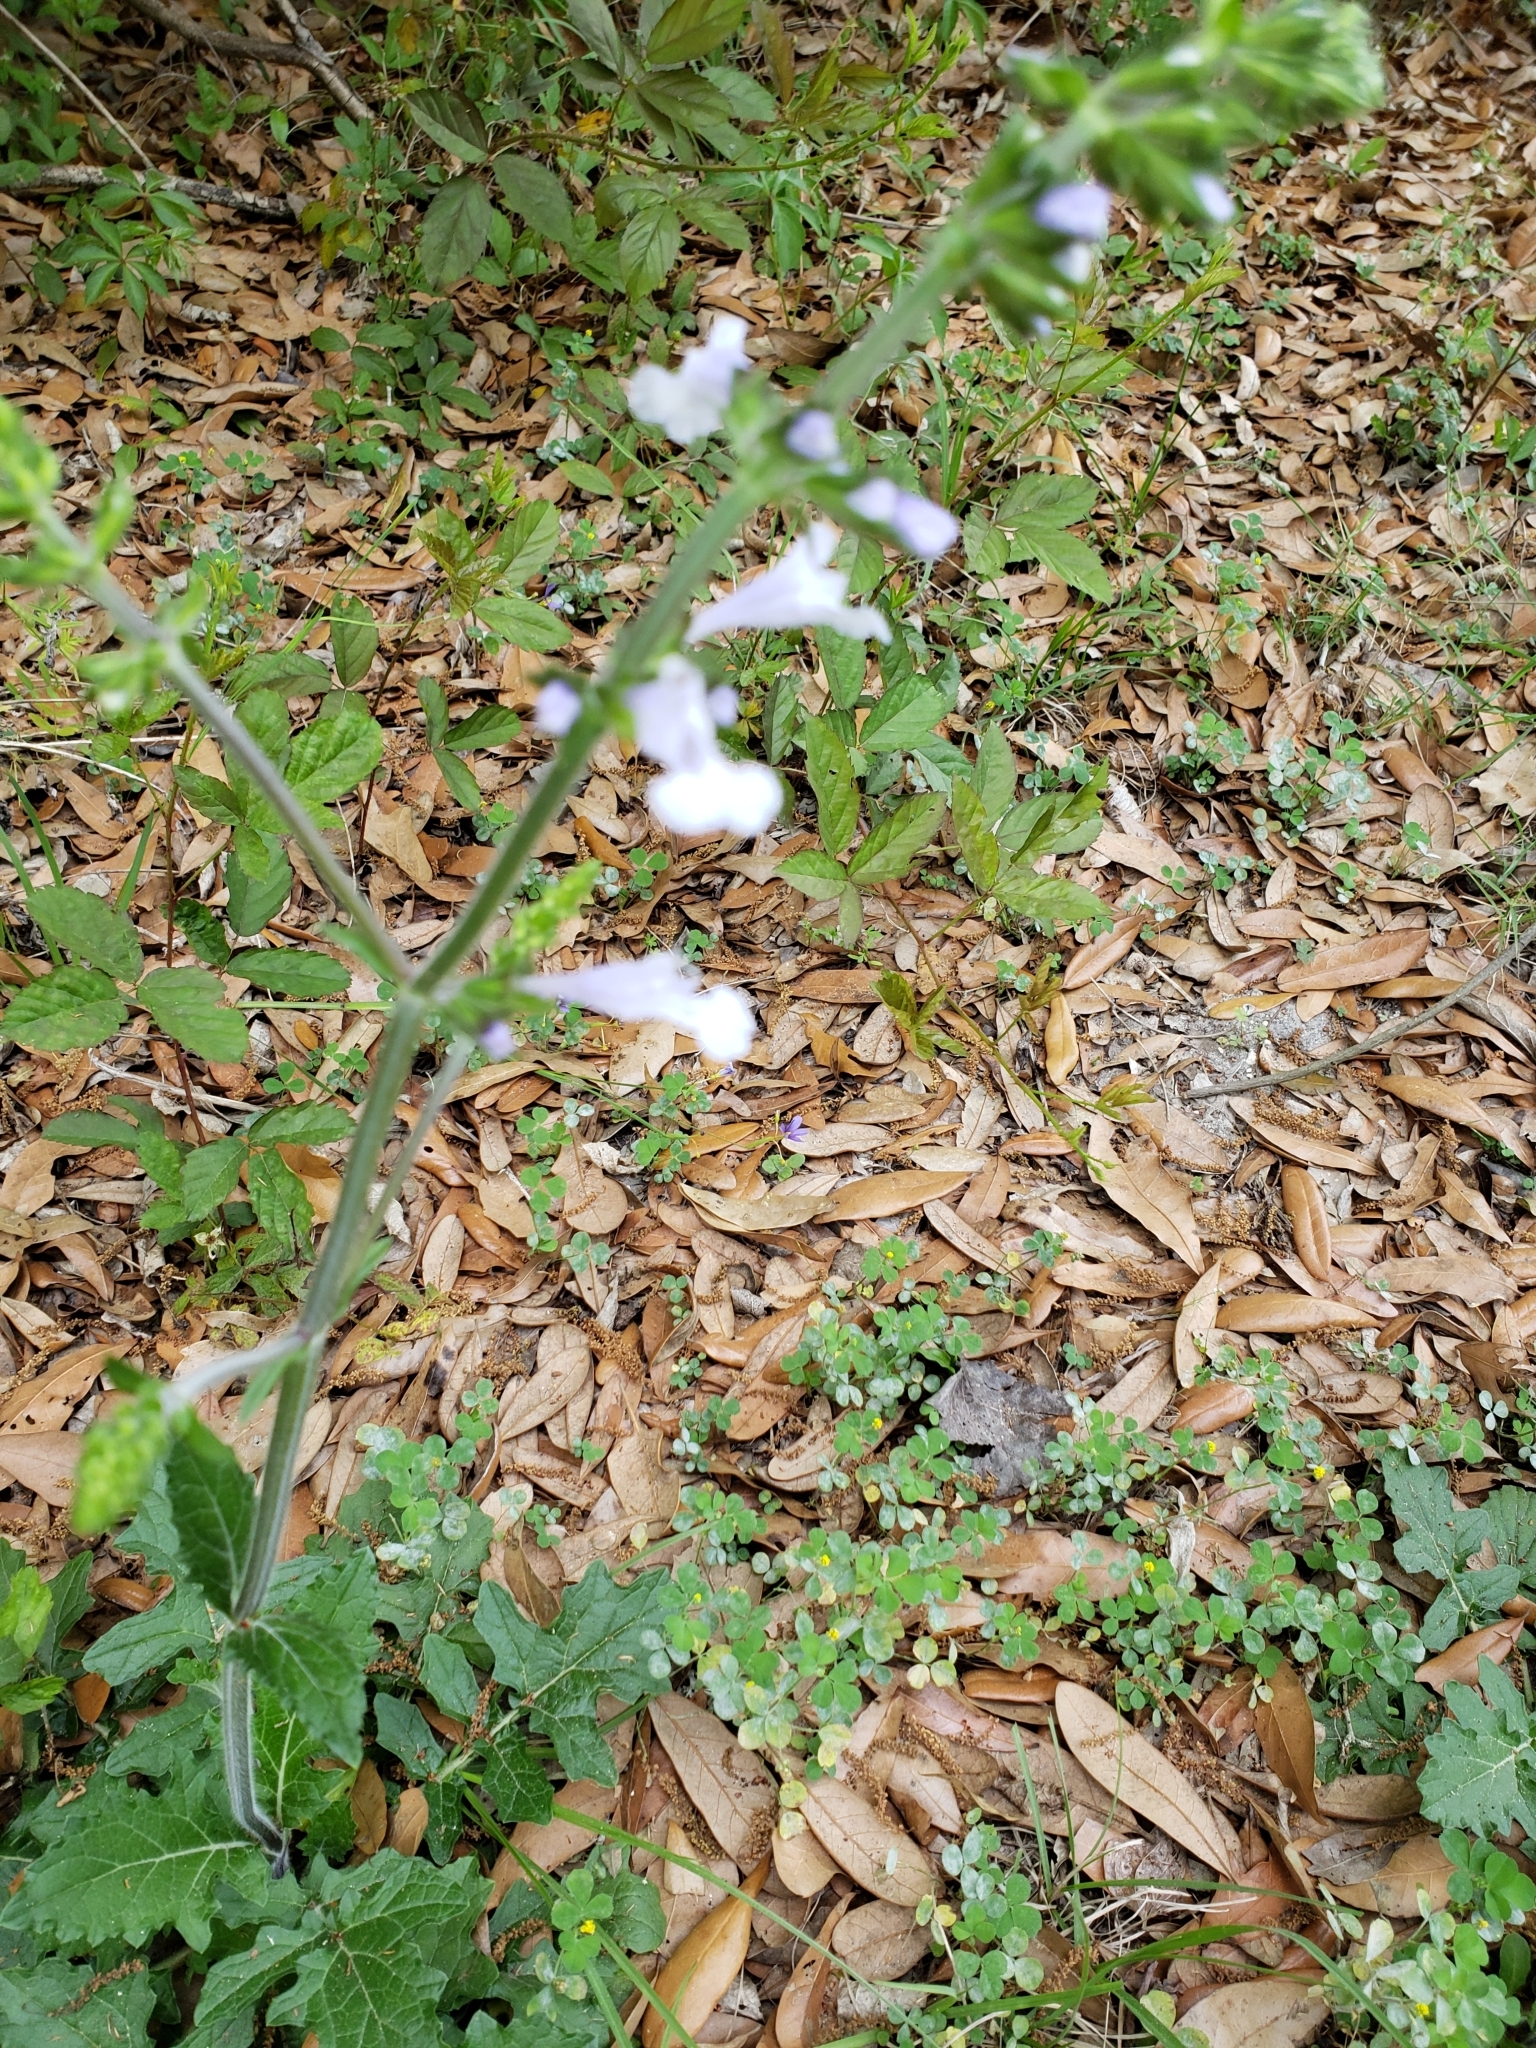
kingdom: Plantae
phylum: Tracheophyta
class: Magnoliopsida
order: Lamiales
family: Lamiaceae
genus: Salvia
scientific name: Salvia lyrata
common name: Cancerweed
